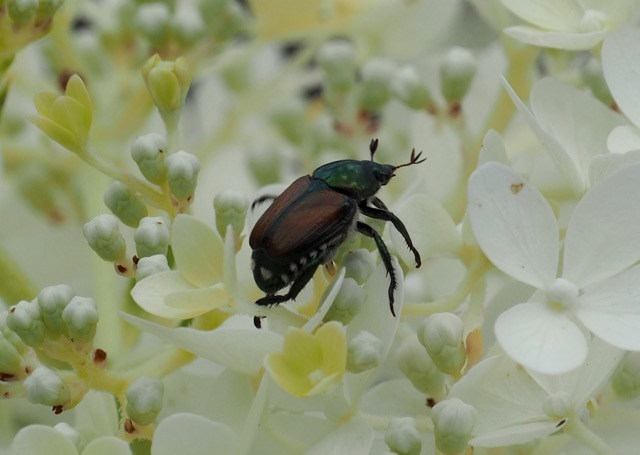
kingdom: Animalia
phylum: Arthropoda
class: Insecta
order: Coleoptera
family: Scarabaeidae
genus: Popillia
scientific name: Popillia japonica
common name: Japanese beetle
